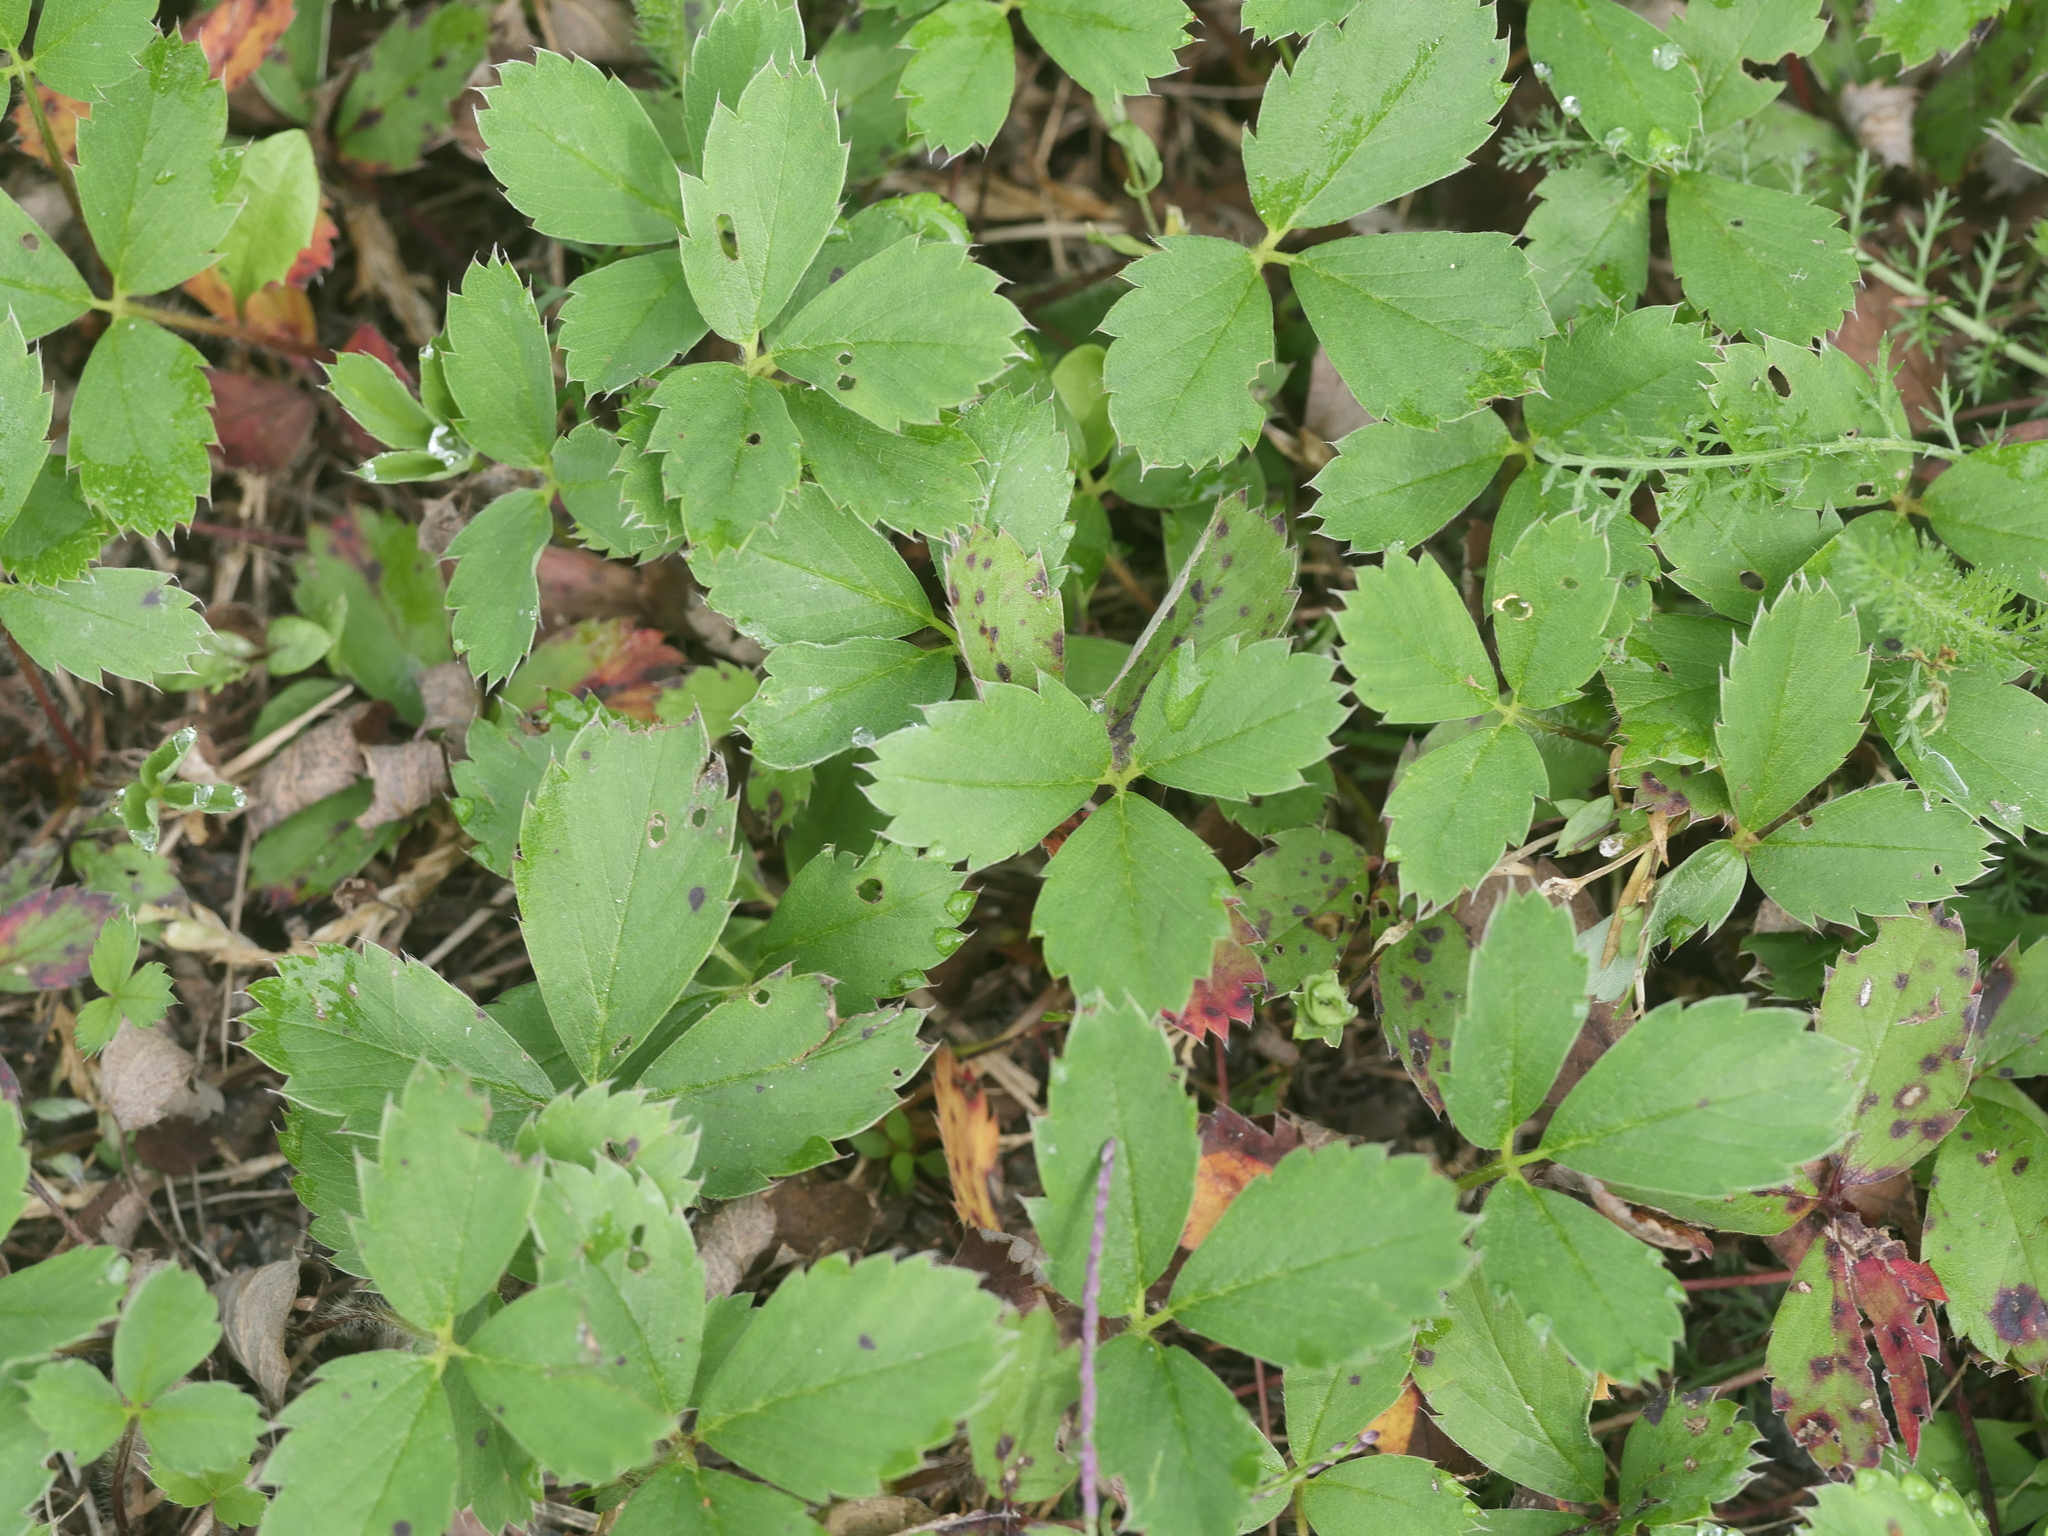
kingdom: Plantae
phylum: Tracheophyta
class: Magnoliopsida
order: Rosales
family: Rosaceae
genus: Fragaria
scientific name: Fragaria virginiana
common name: Thickleaved wild strawberry
